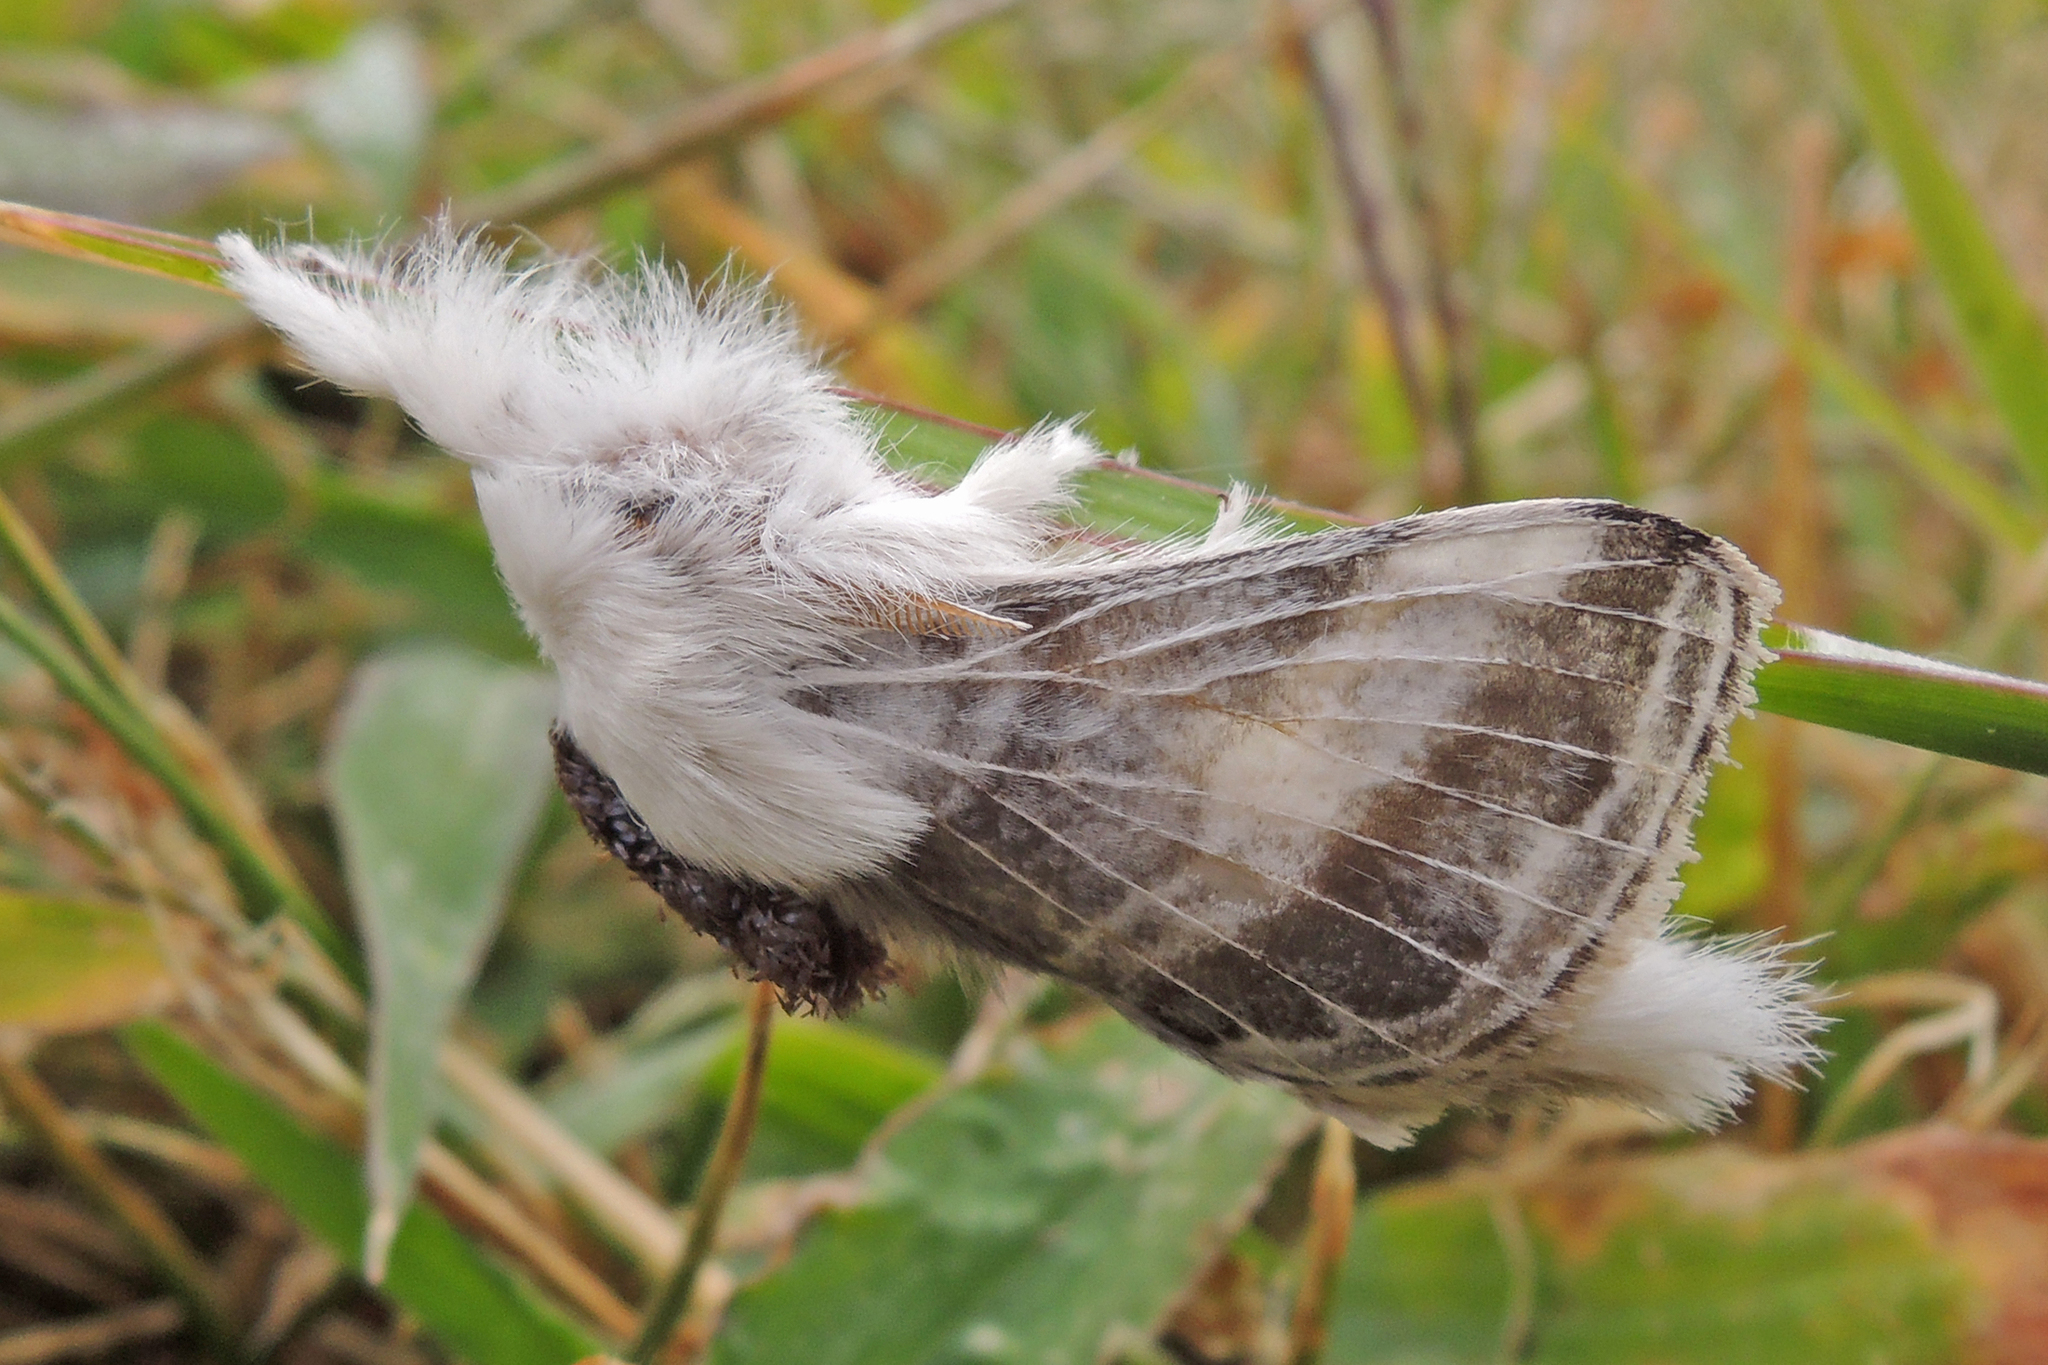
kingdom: Animalia
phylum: Arthropoda
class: Insecta
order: Lepidoptera
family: Lasiocampidae
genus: Tolype
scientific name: Tolype velleda
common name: Large tolype moth
